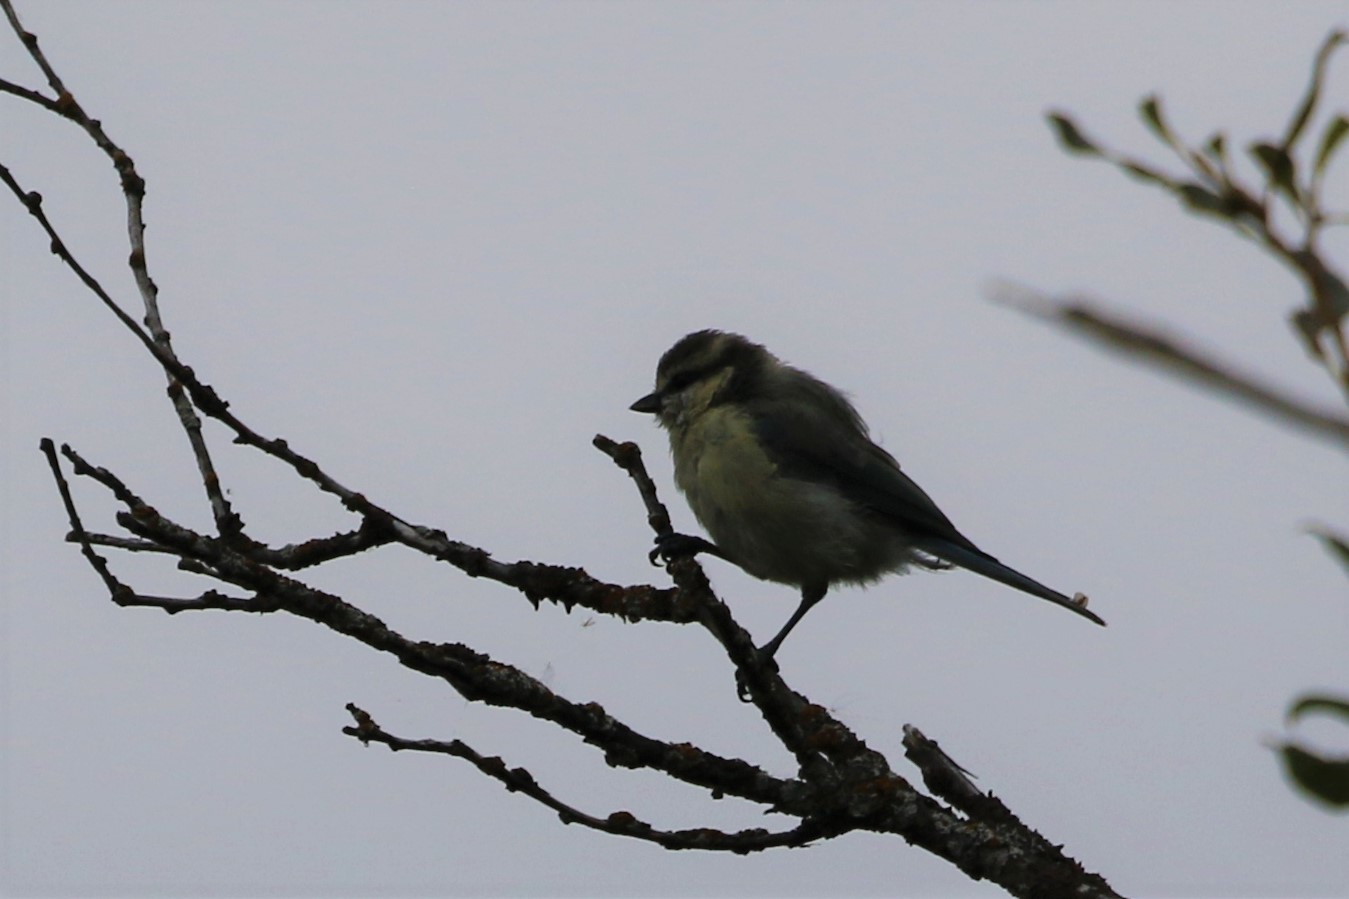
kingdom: Animalia
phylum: Chordata
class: Aves
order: Passeriformes
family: Paridae
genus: Cyanistes
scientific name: Cyanistes caeruleus
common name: Eurasian blue tit
